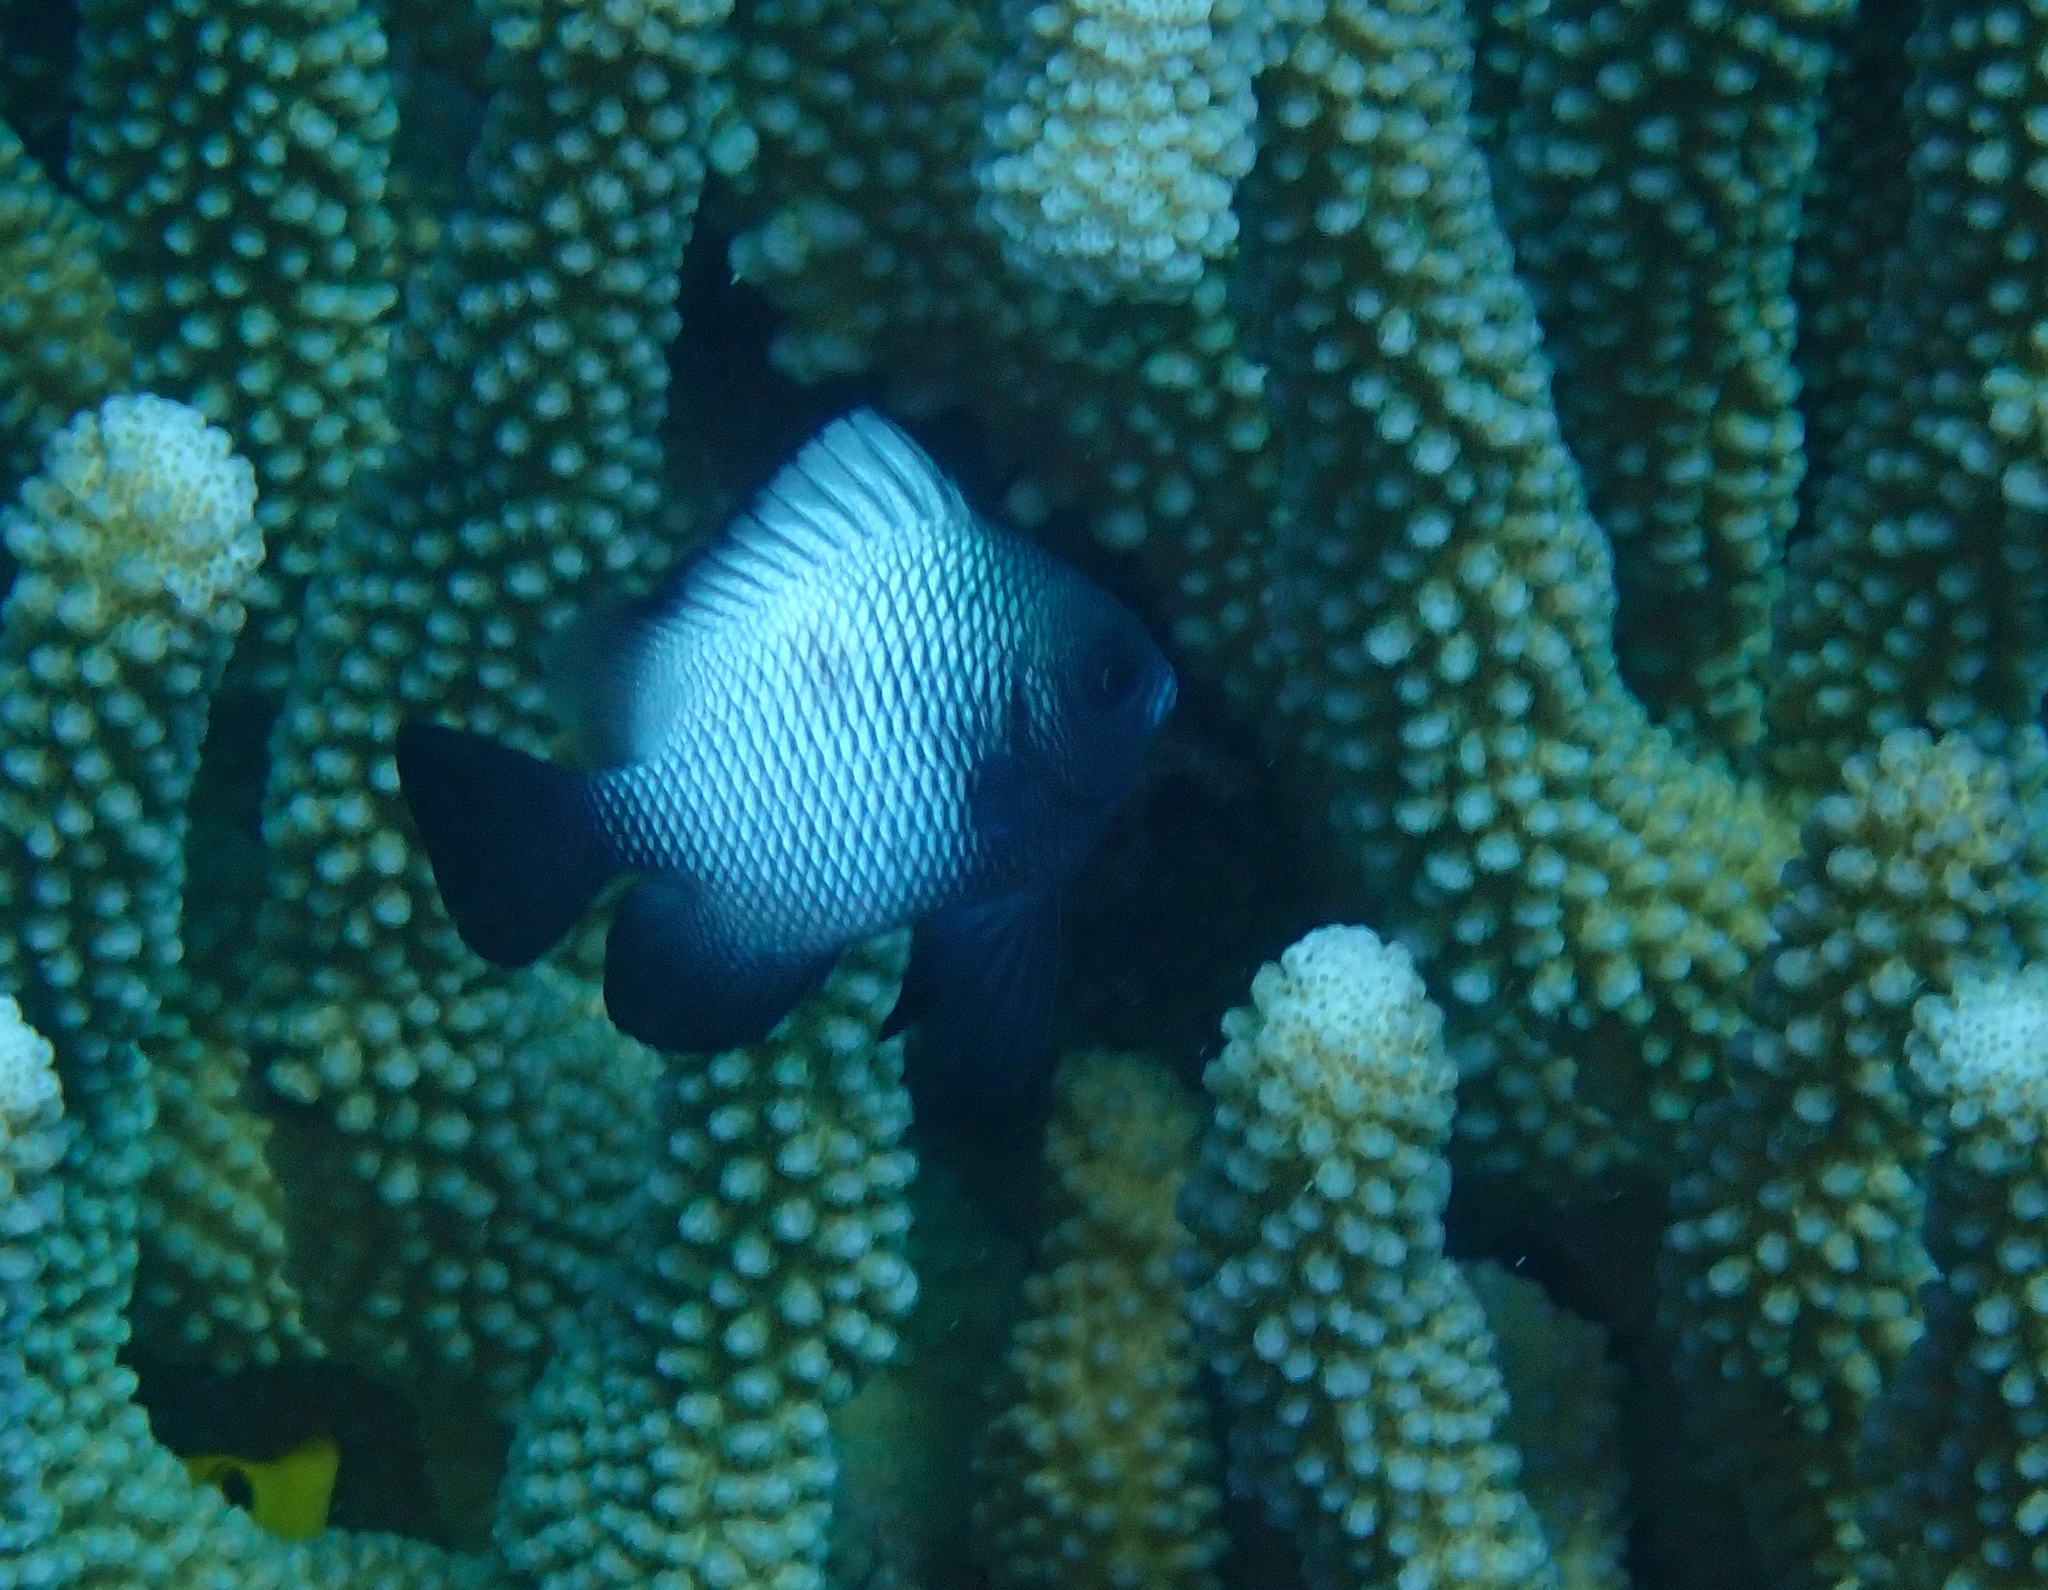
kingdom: Animalia
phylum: Chordata
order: Perciformes
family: Pomacentridae
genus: Dascyllus
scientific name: Dascyllus albisella
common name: Hawaiian dascyllus
